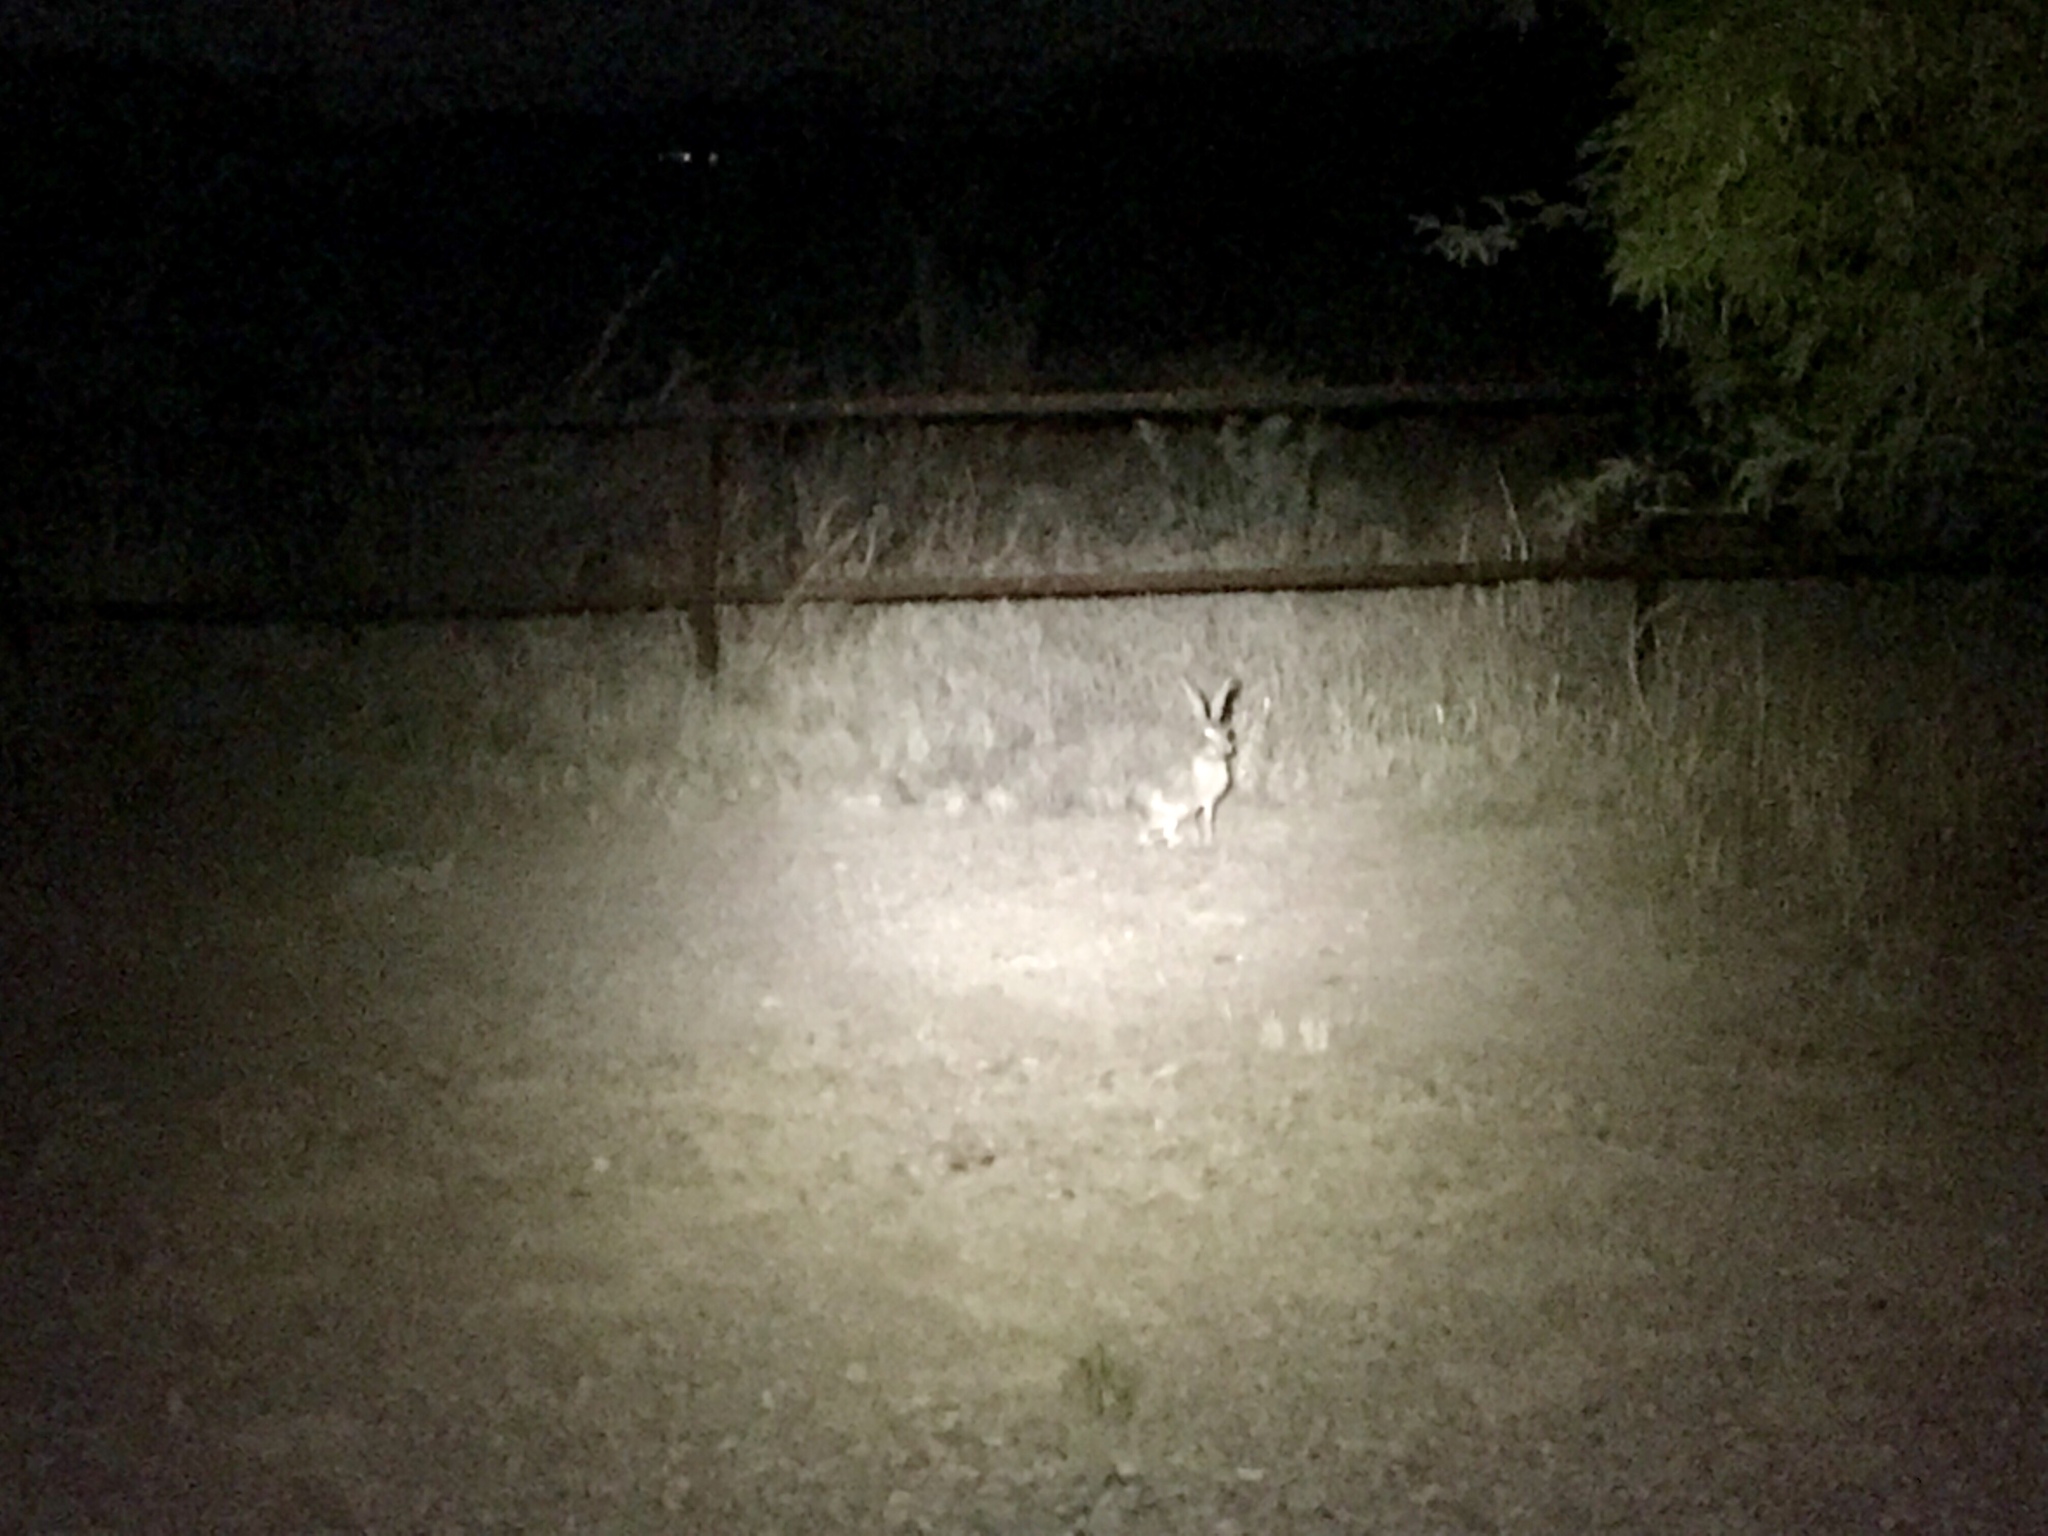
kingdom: Animalia
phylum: Chordata
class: Mammalia
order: Lagomorpha
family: Leporidae
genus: Lepus
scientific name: Lepus californicus
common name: Black-tailed jackrabbit
